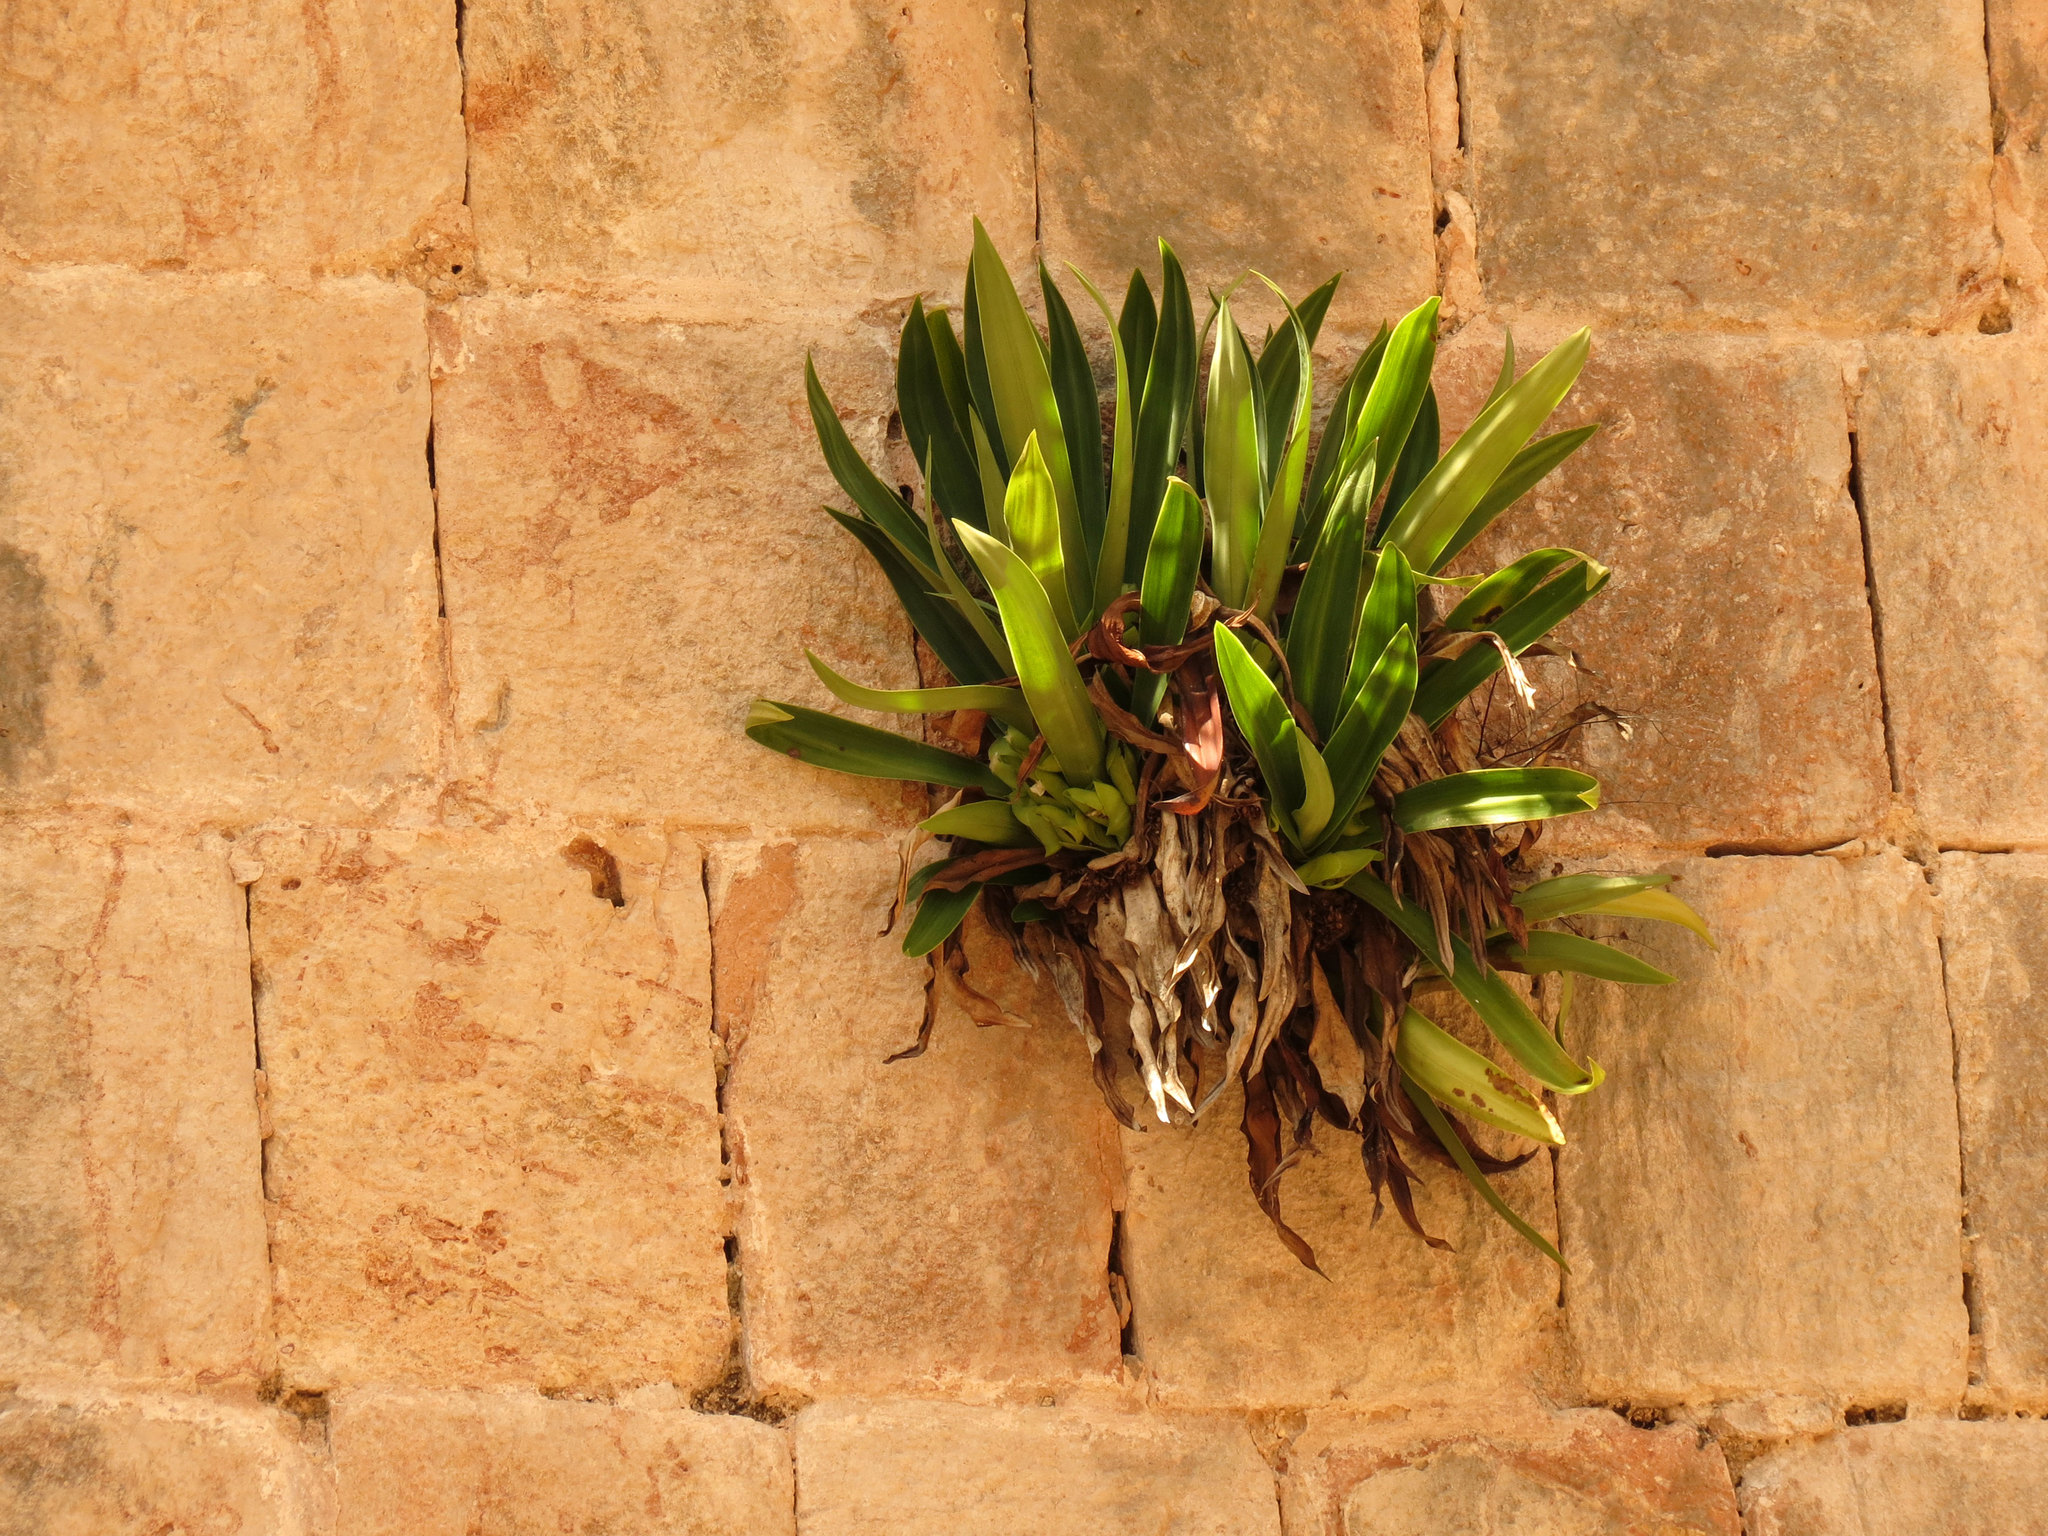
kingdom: Plantae
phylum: Tracheophyta
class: Liliopsida
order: Commelinales
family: Commelinaceae
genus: Tradescantia
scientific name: Tradescantia spathacea
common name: Boatlily
